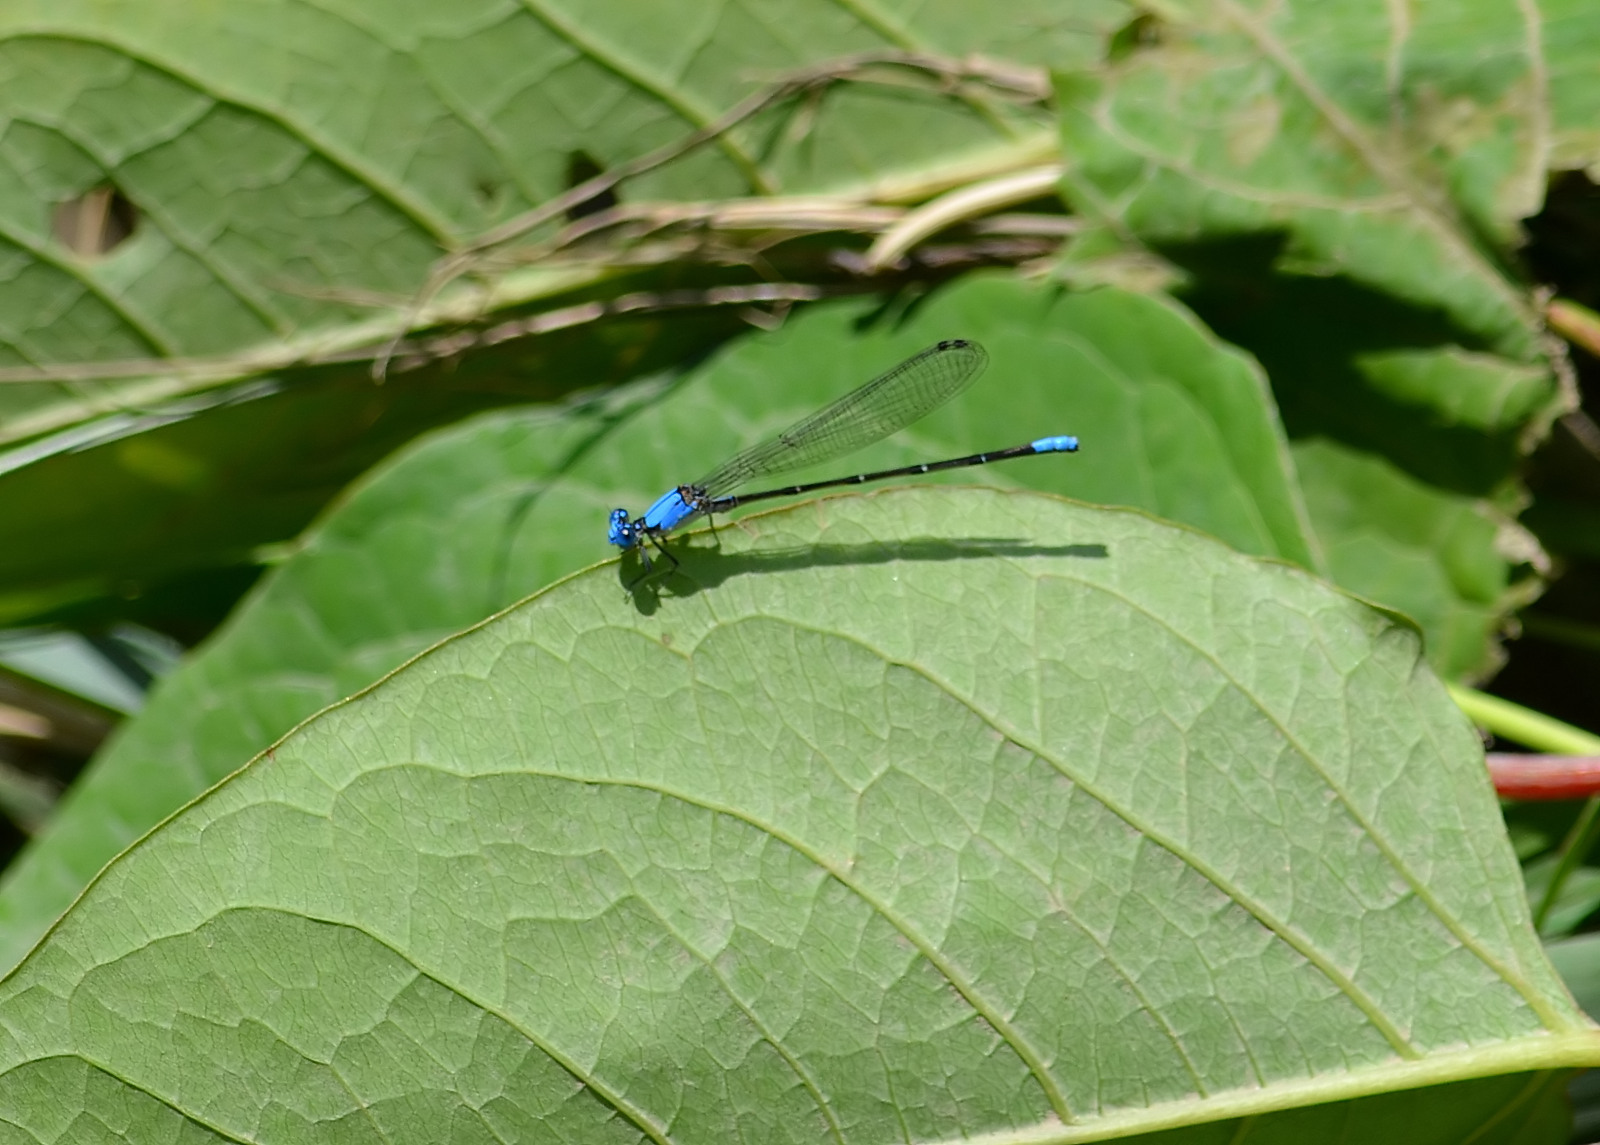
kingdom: Animalia
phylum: Arthropoda
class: Insecta
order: Odonata
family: Coenagrionidae
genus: Argia
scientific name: Argia apicalis
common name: Blue-fronted dancer
